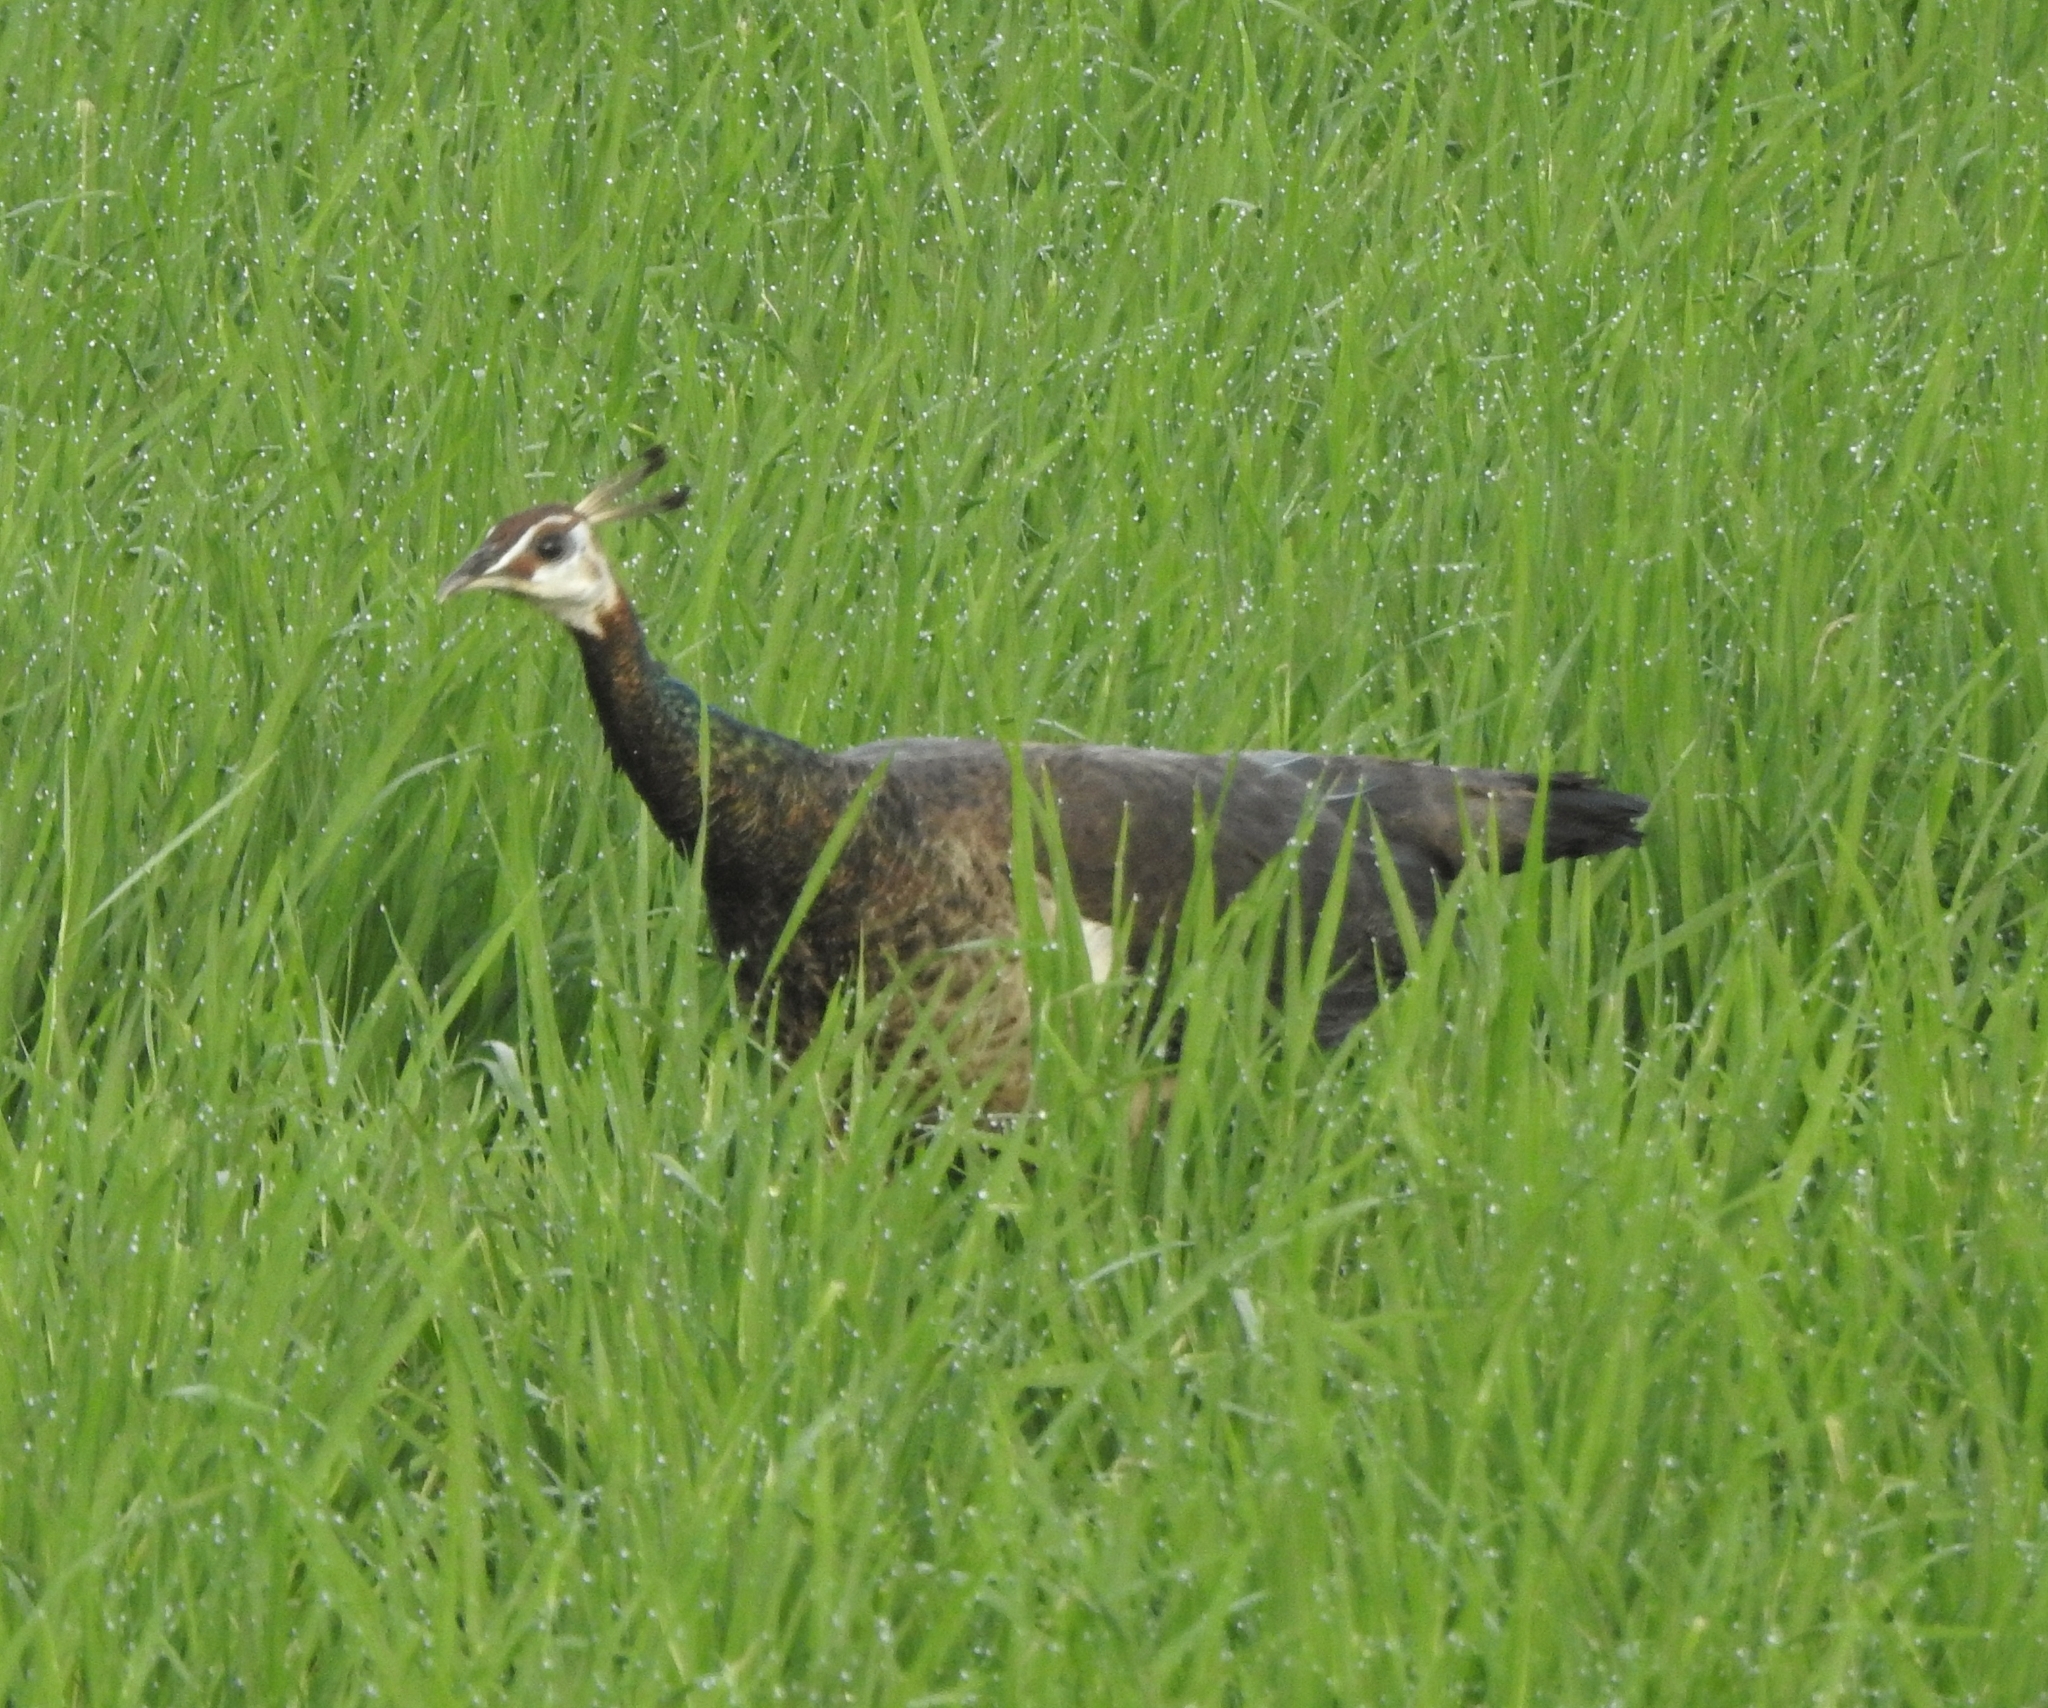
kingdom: Animalia
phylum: Chordata
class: Aves
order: Galliformes
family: Phasianidae
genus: Pavo
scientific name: Pavo cristatus
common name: Indian peafowl
